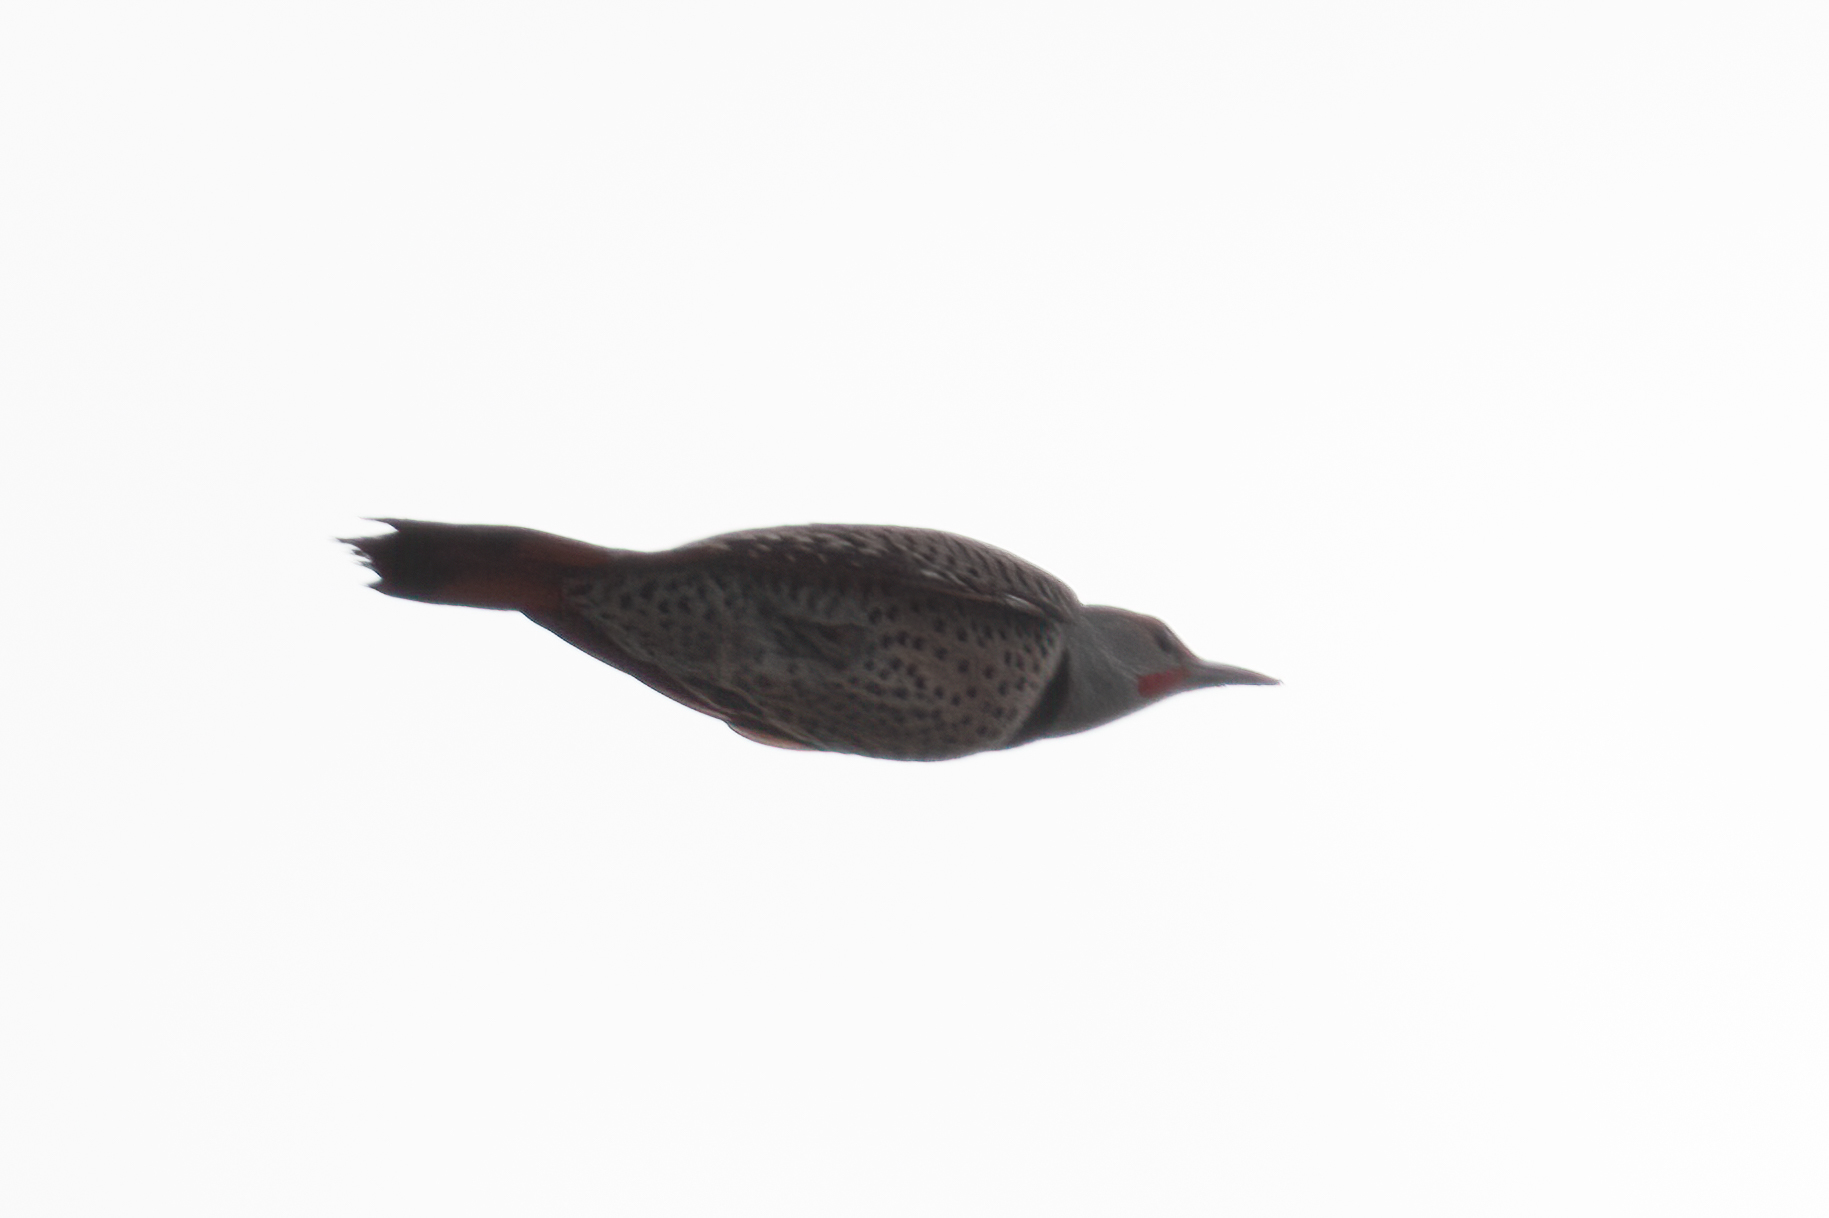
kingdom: Animalia
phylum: Chordata
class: Aves
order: Piciformes
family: Picidae
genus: Colaptes
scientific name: Colaptes auratus
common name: Northern flicker
